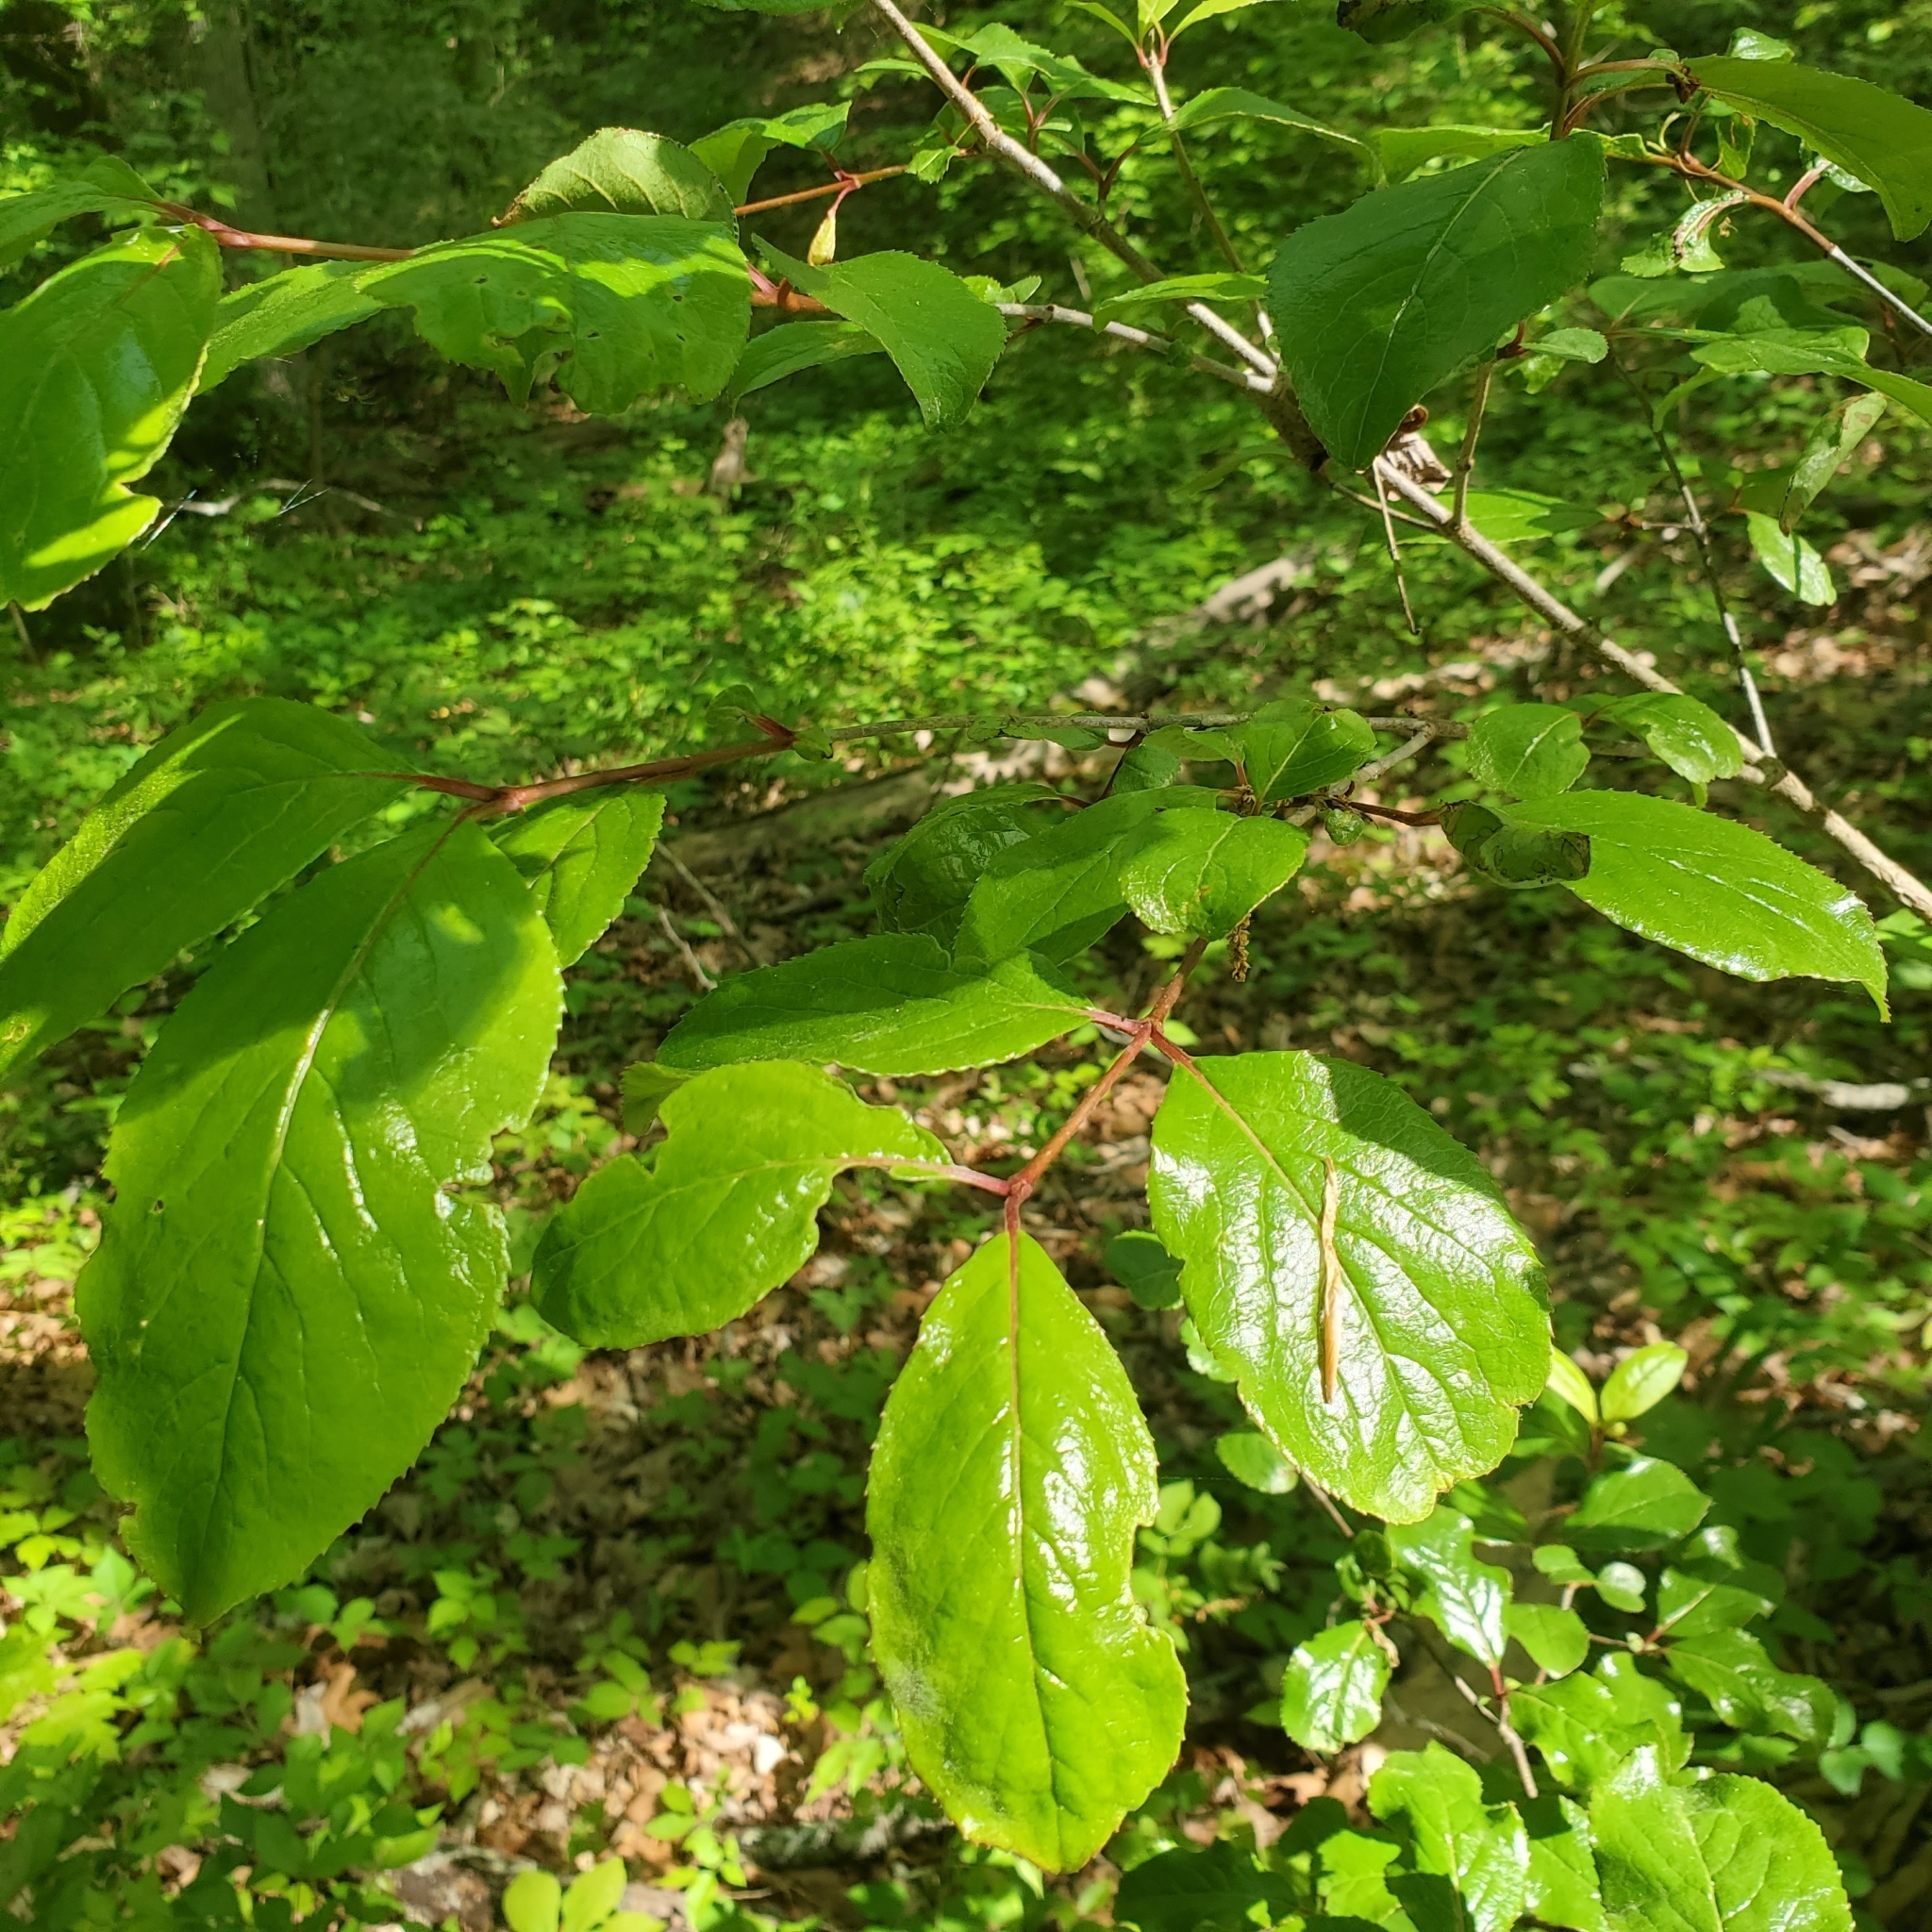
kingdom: Plantae
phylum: Tracheophyta
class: Magnoliopsida
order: Dipsacales
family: Viburnaceae
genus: Viburnum
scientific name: Viburnum rufidulum
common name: Blue haw
